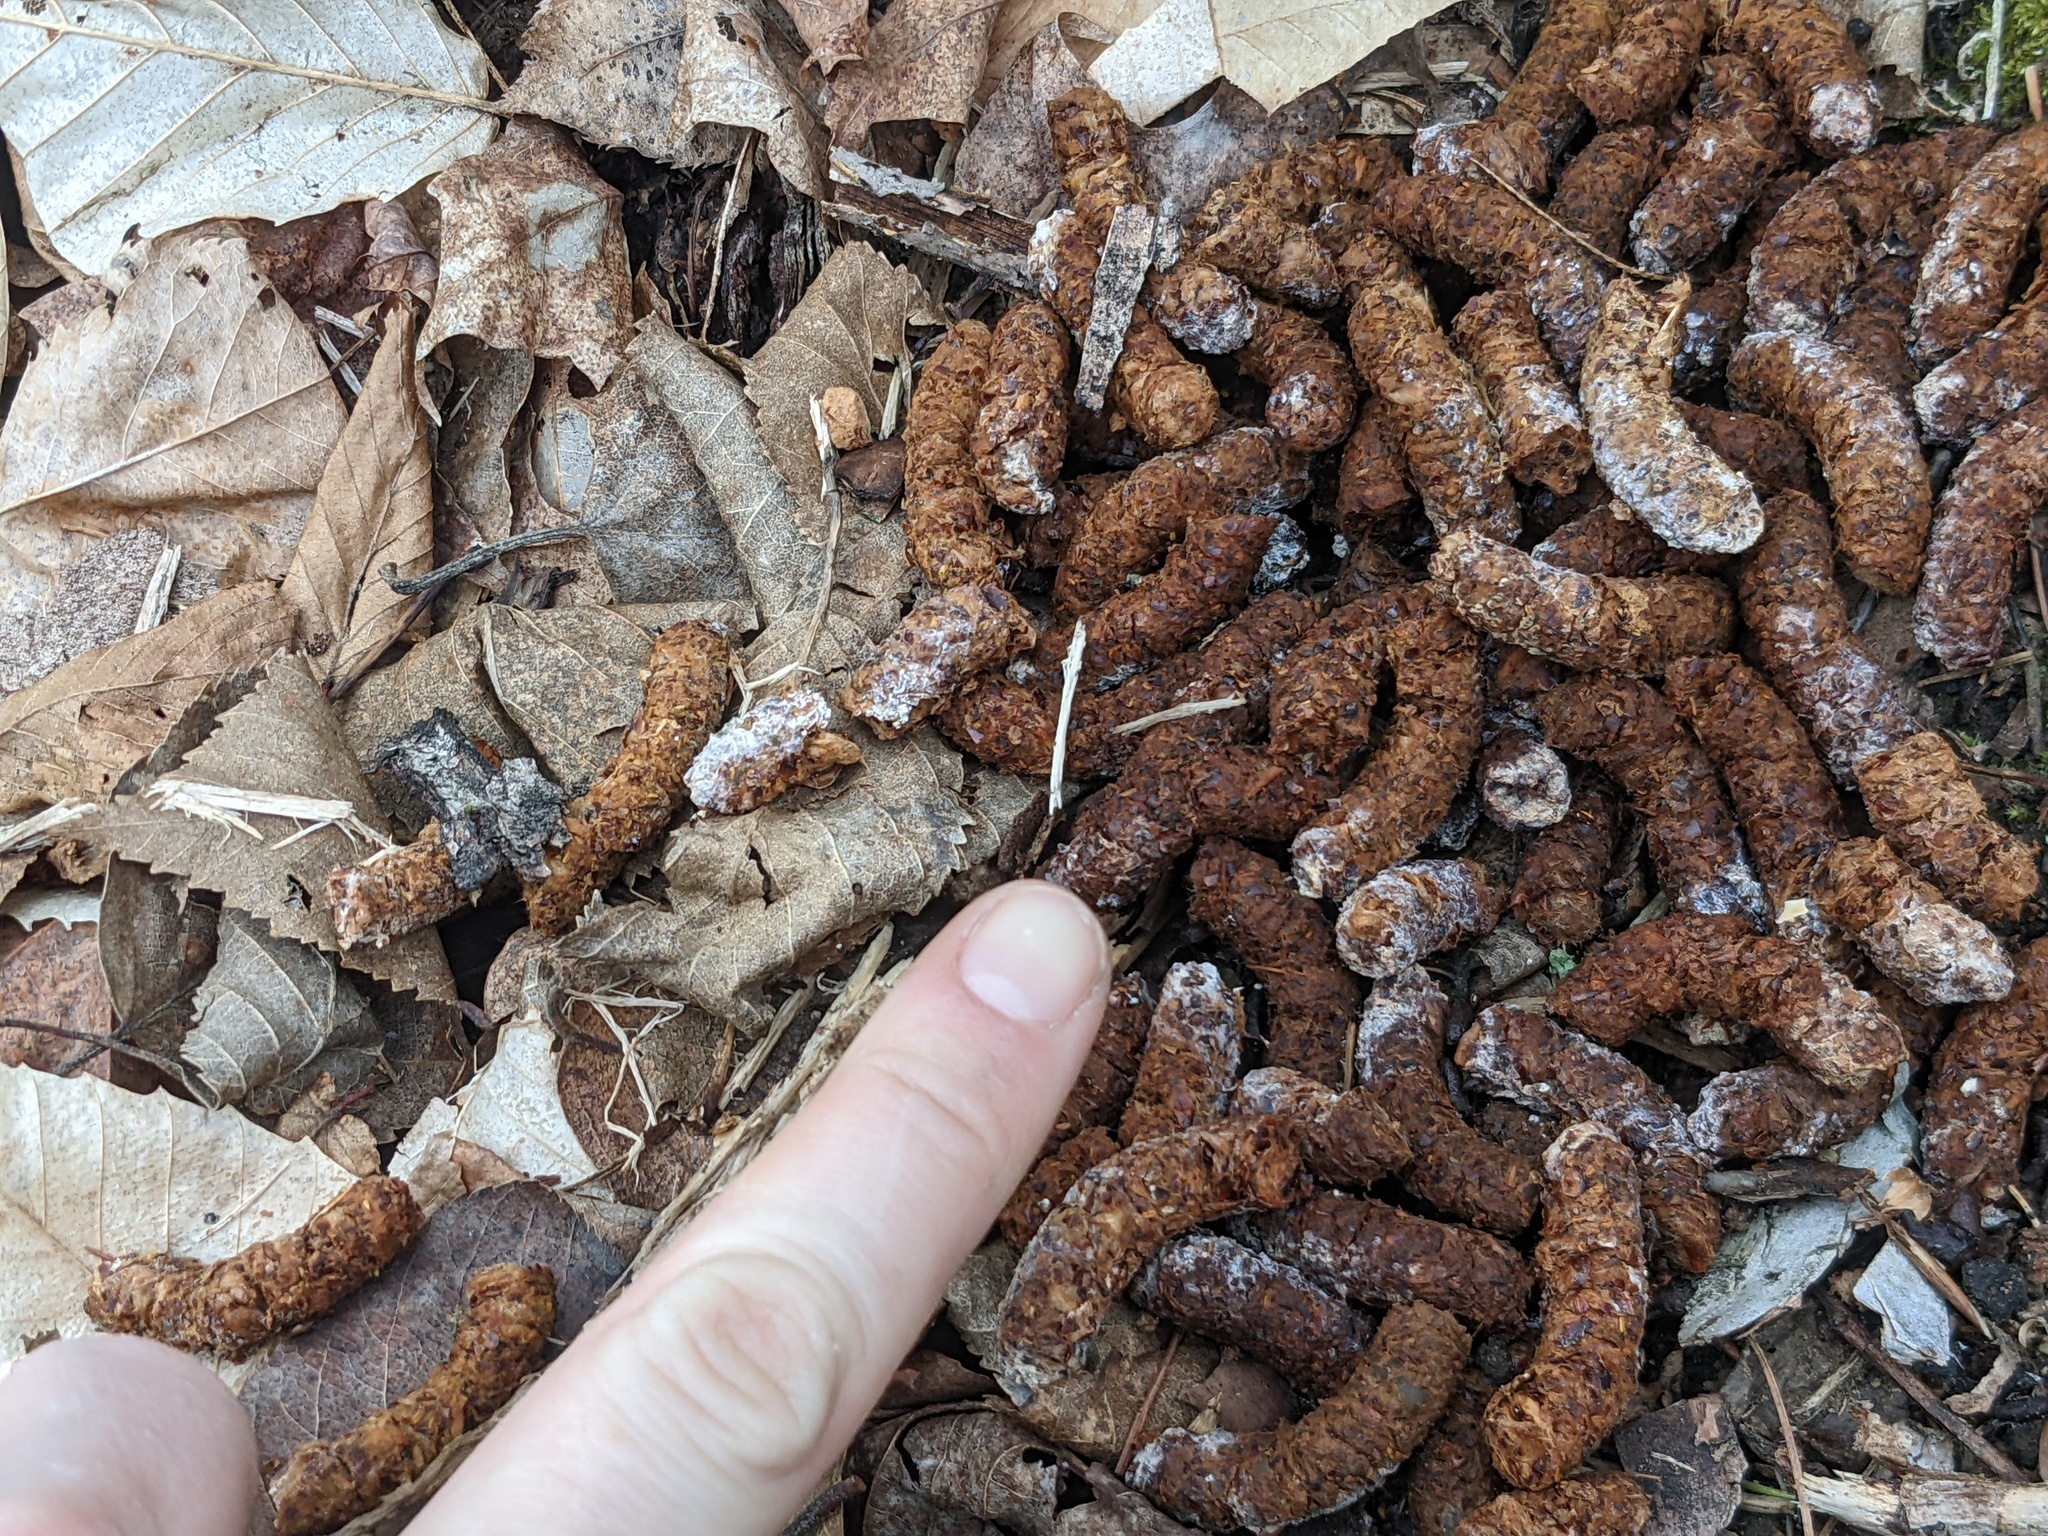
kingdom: Animalia
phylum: Chordata
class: Aves
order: Galliformes
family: Phasianidae
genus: Bonasa
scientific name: Bonasa umbellus
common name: Ruffed grouse
